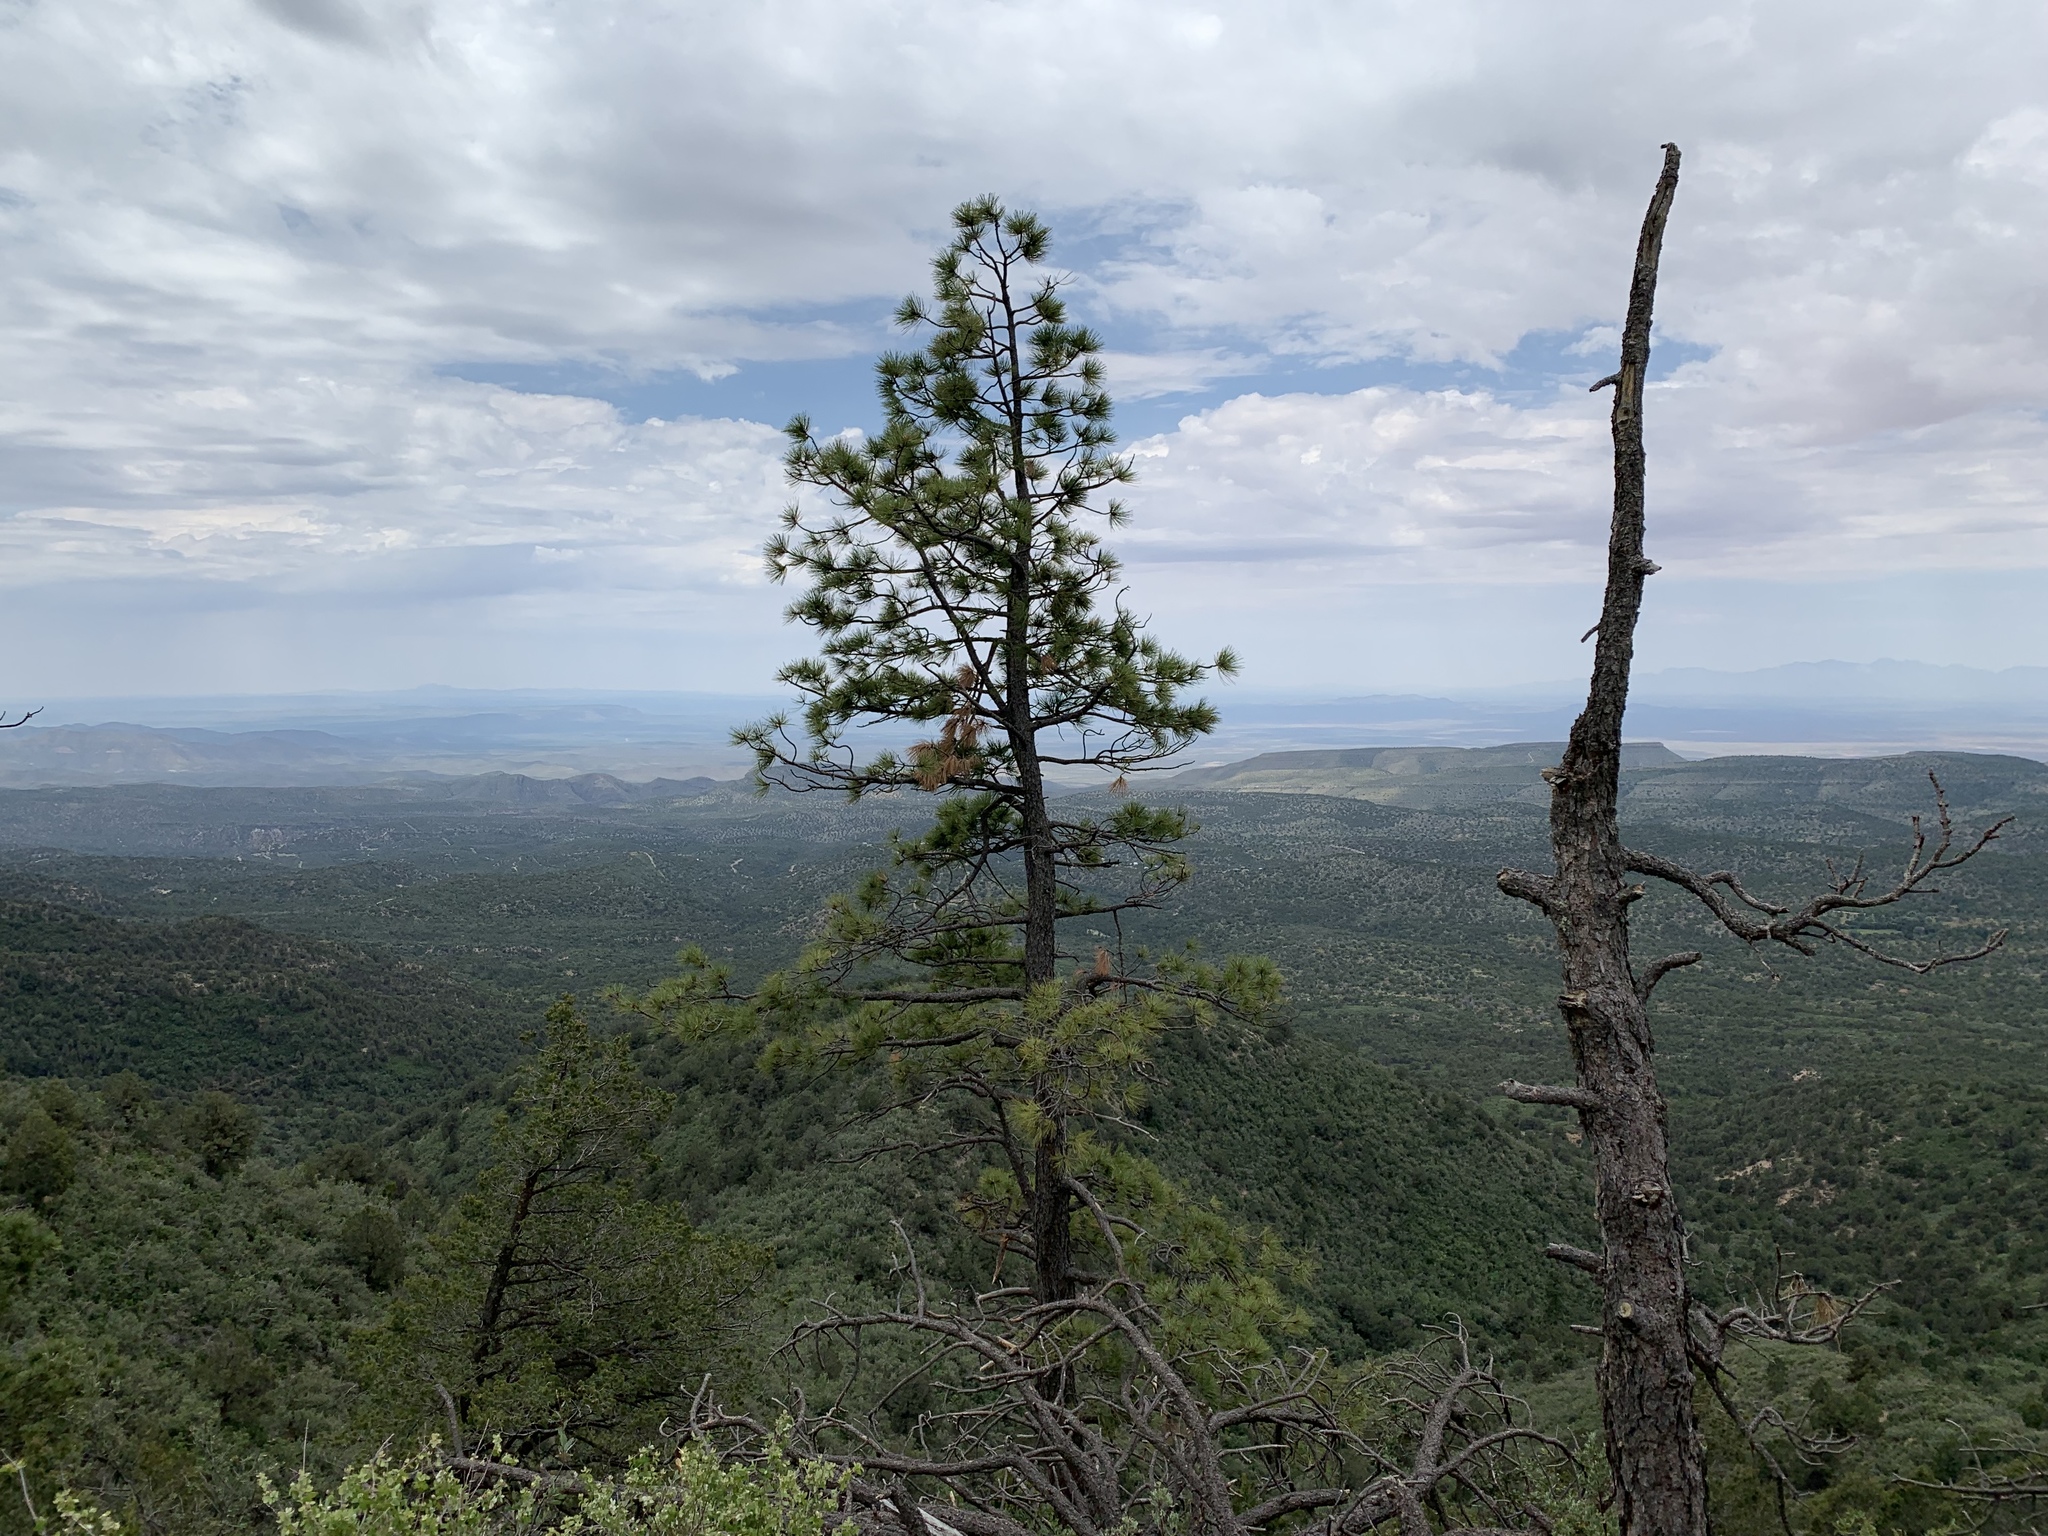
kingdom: Plantae
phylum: Tracheophyta
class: Pinopsida
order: Pinales
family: Pinaceae
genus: Pinus
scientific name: Pinus ponderosa
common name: Western yellow-pine
